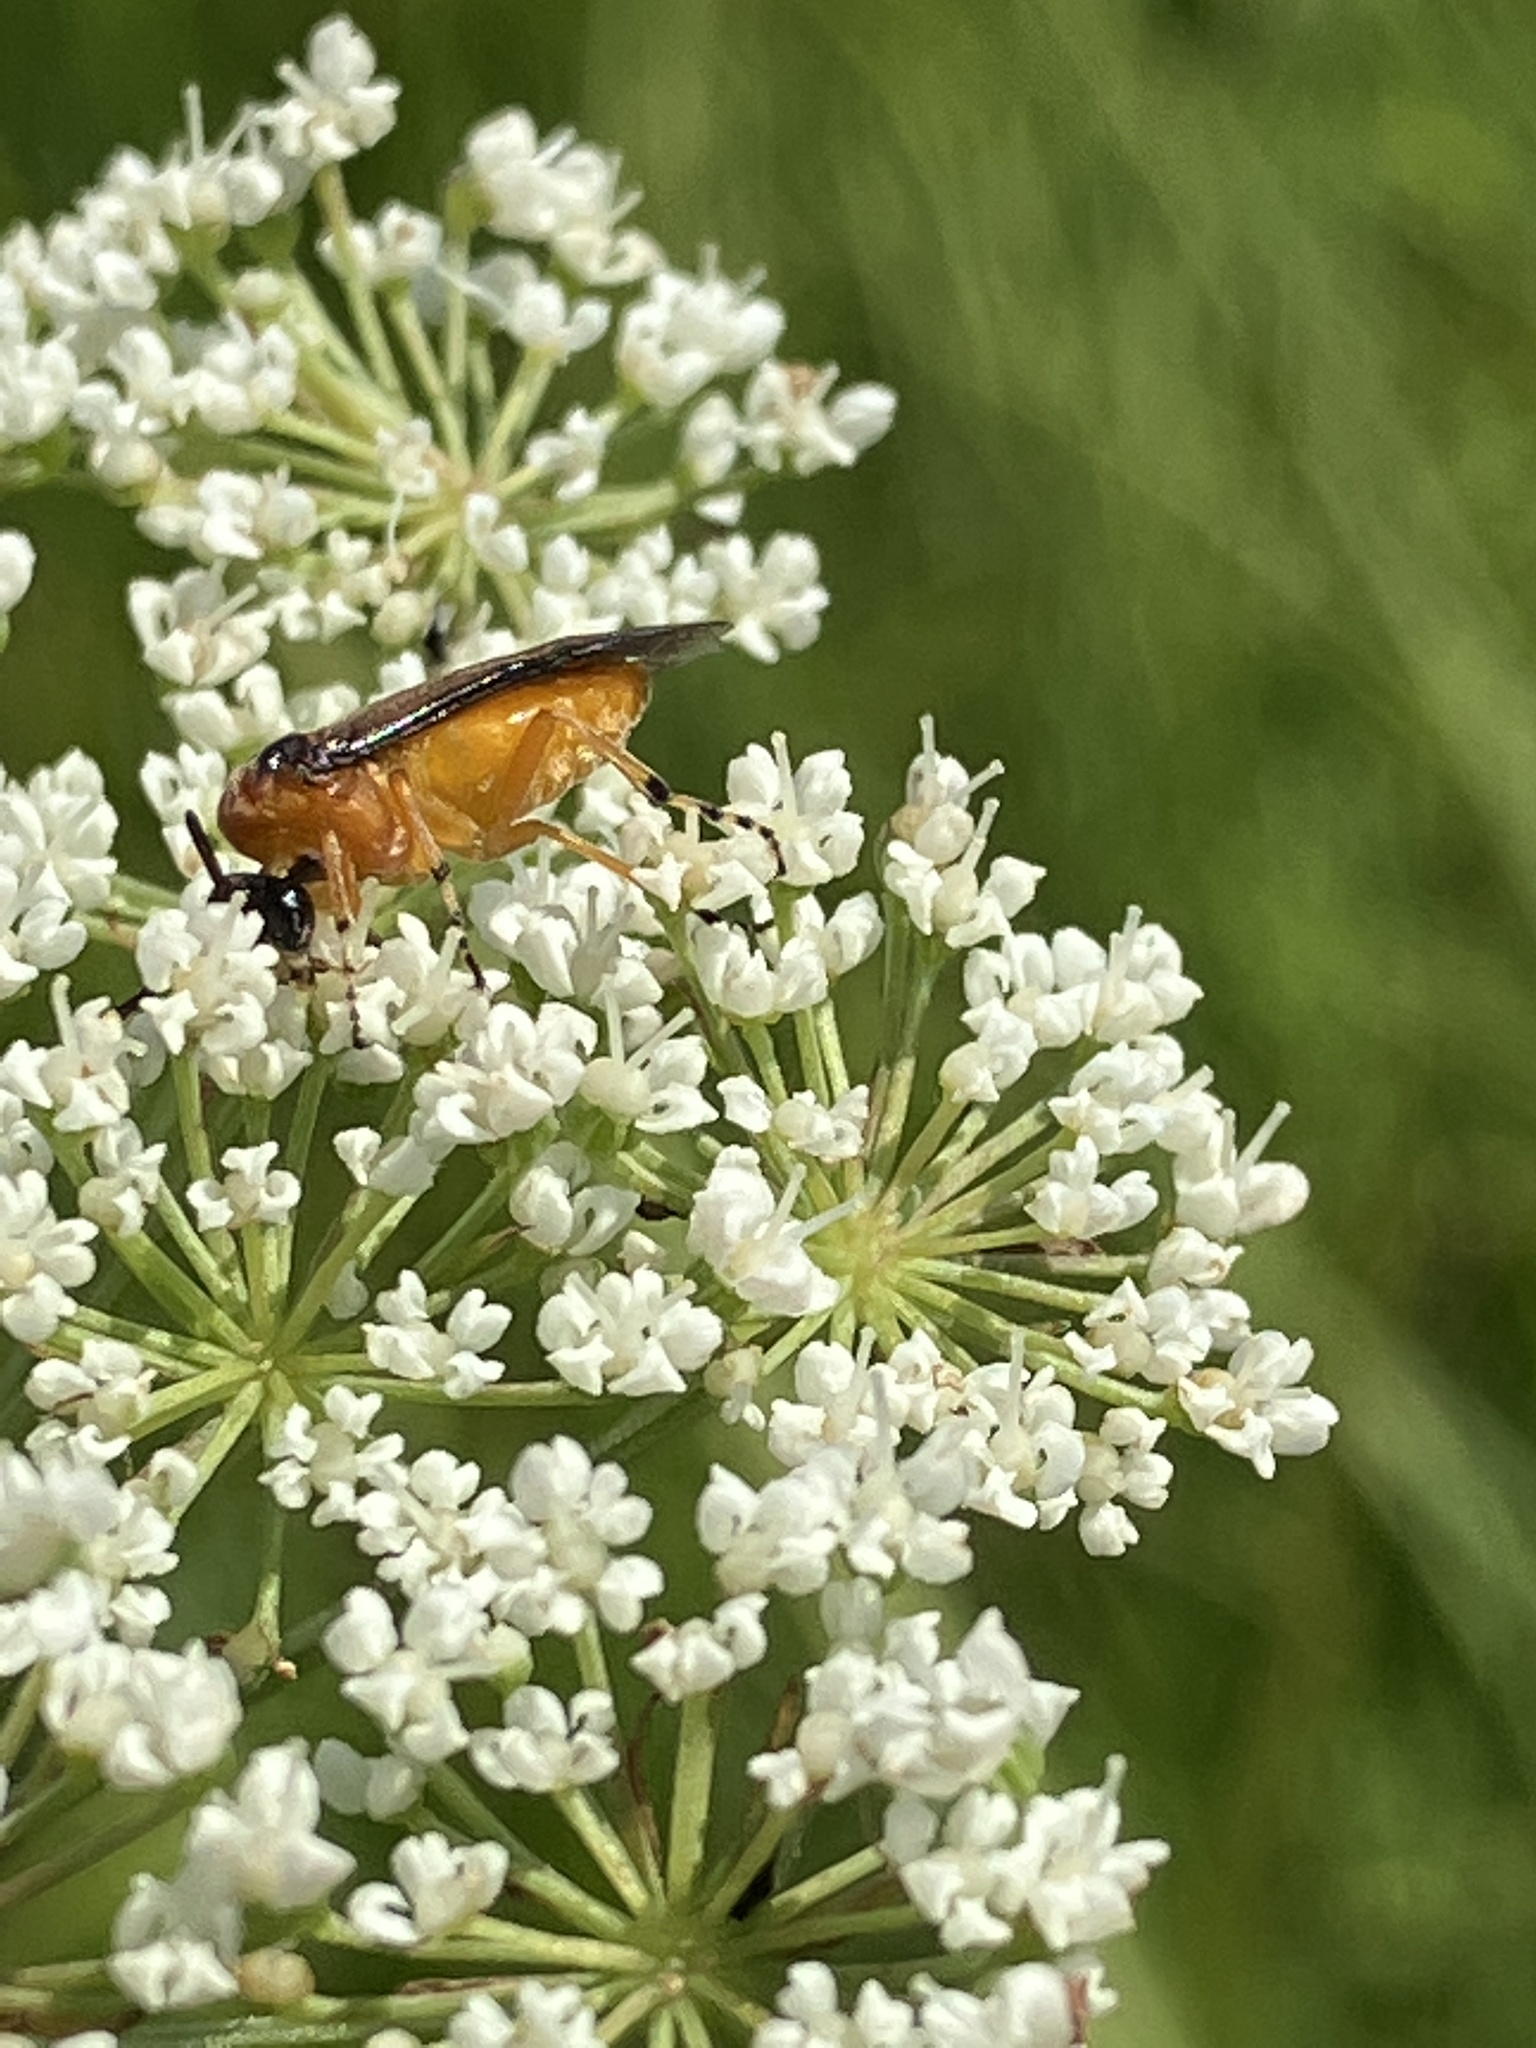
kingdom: Animalia
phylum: Arthropoda
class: Insecta
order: Hymenoptera
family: Tenthredinidae
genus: Athalia
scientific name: Athalia rosae
